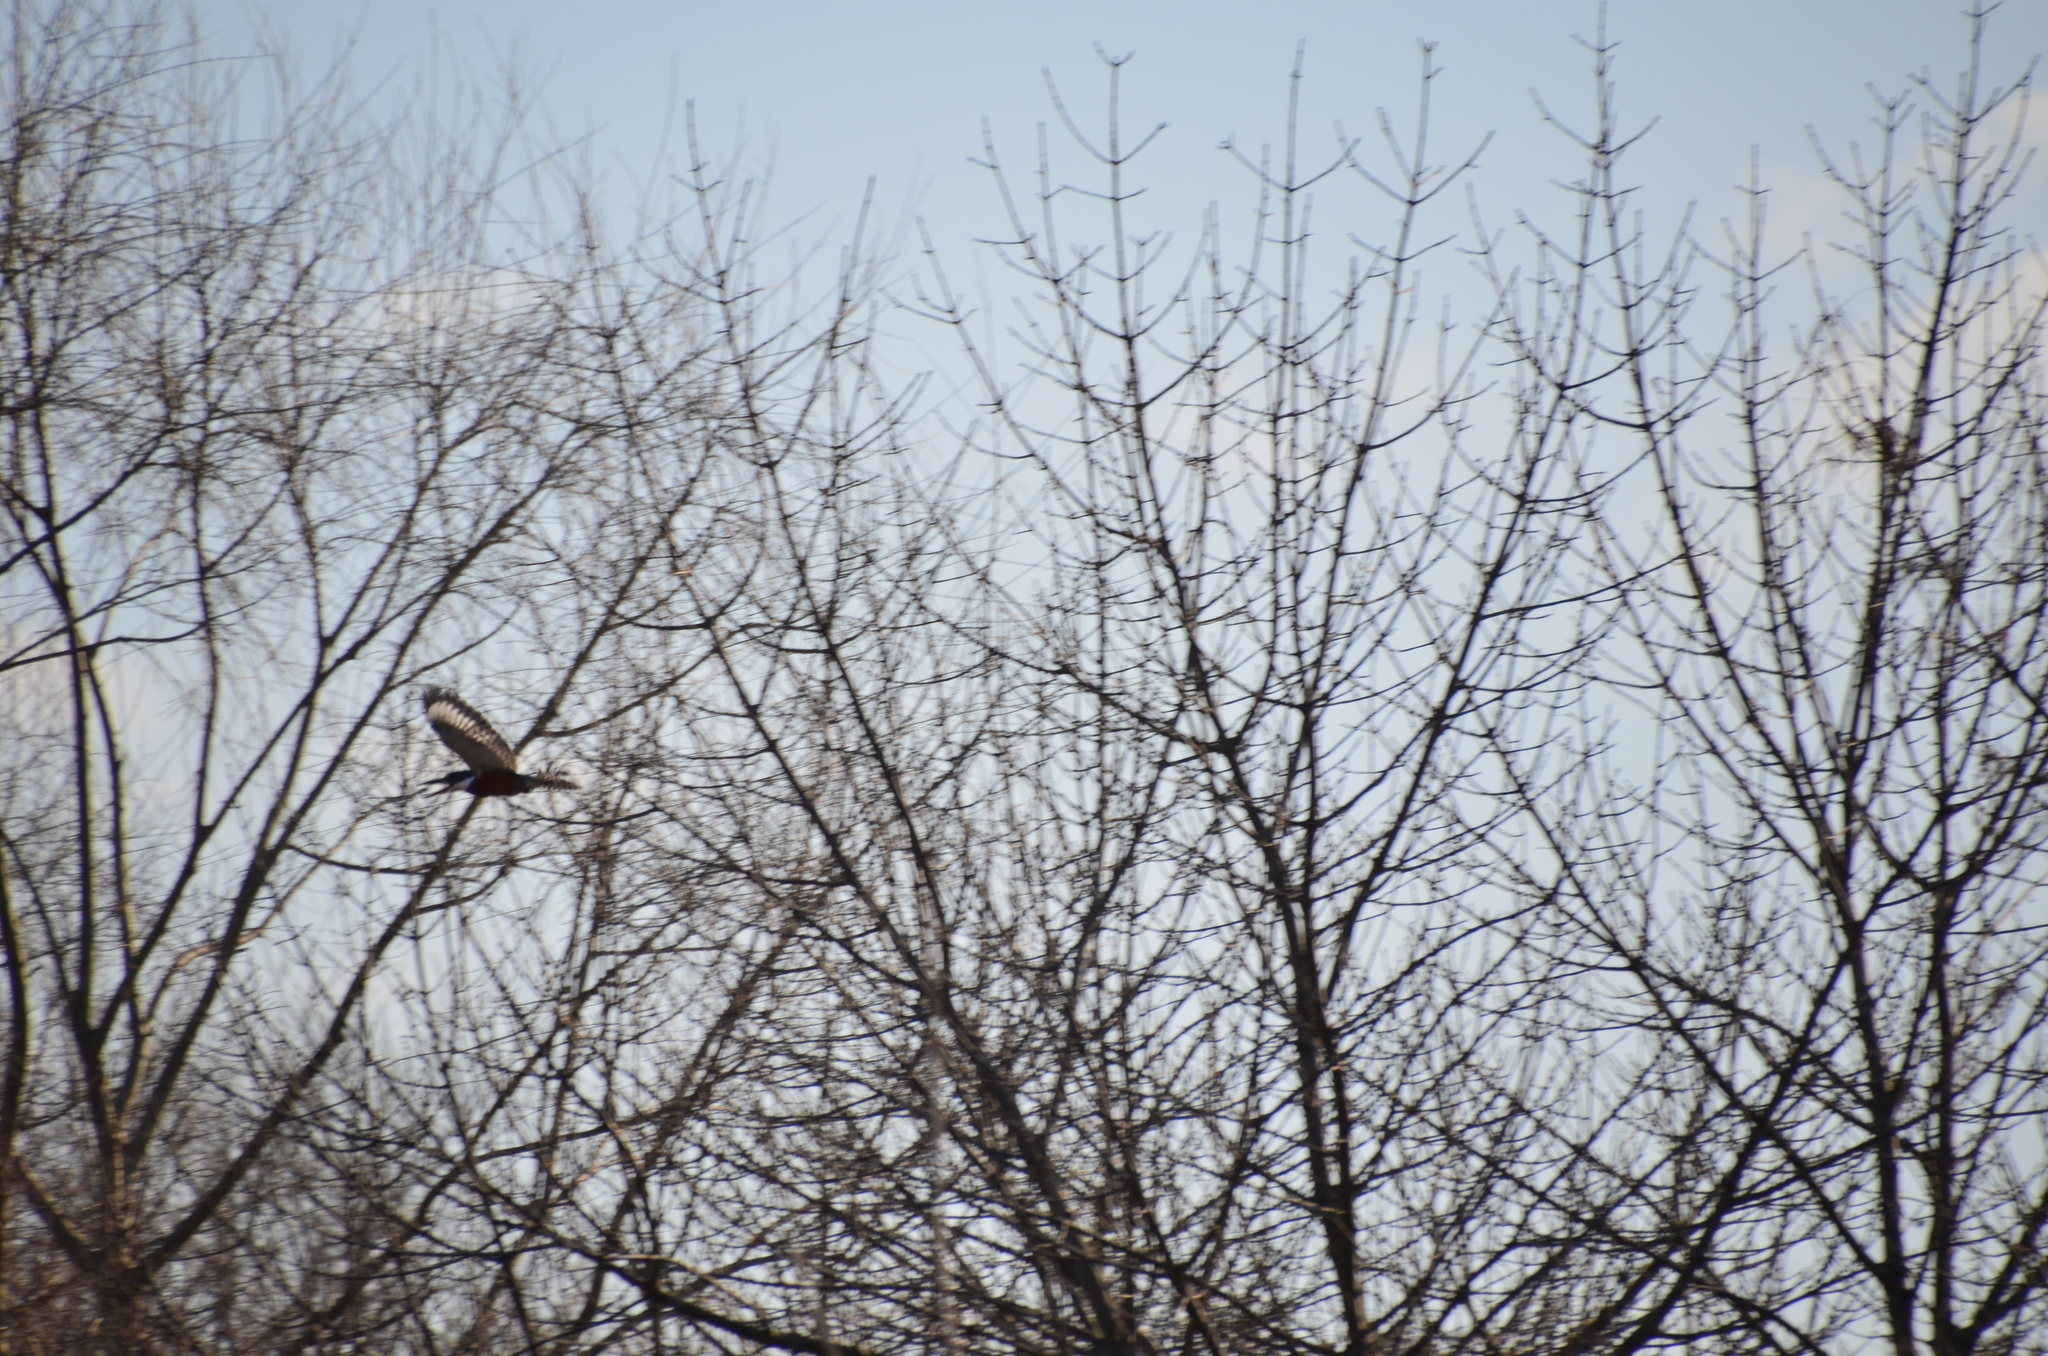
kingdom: Animalia
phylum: Chordata
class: Aves
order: Coraciiformes
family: Alcedinidae
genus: Megaceryle
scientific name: Megaceryle torquata
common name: Ringed kingfisher
